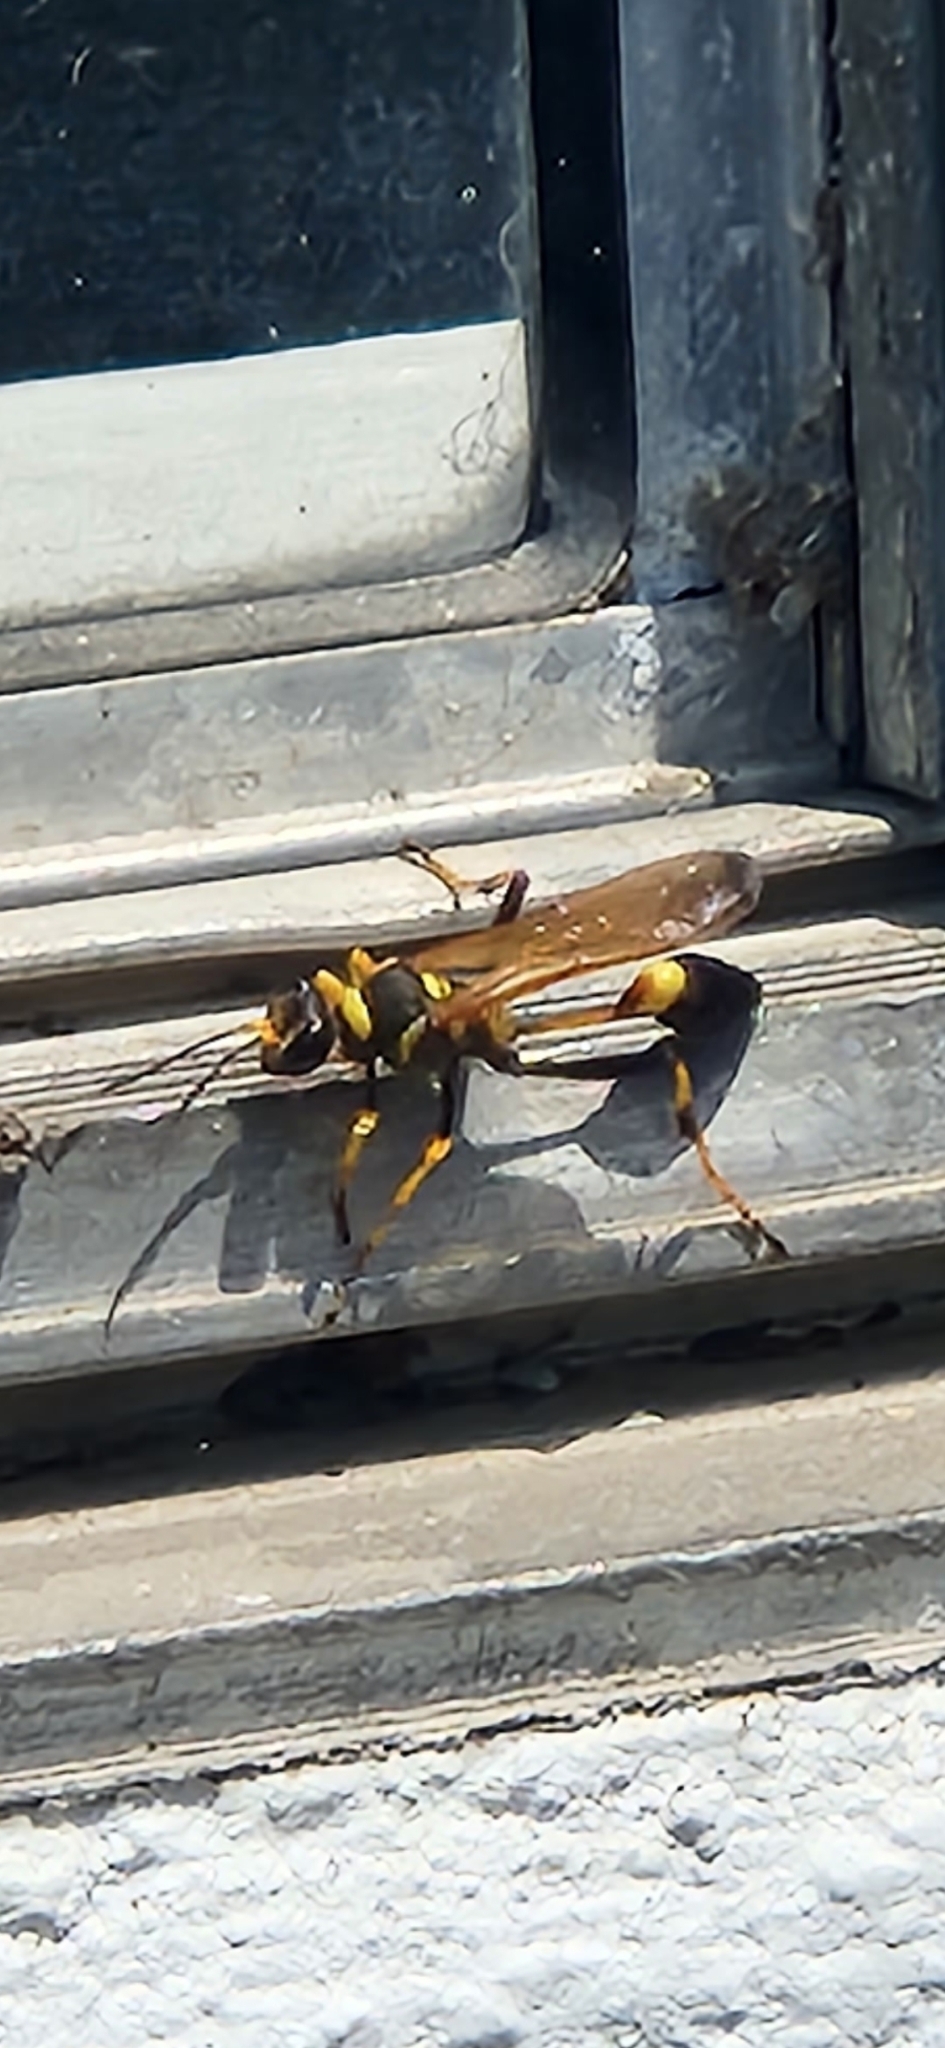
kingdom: Animalia
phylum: Arthropoda
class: Insecta
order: Hymenoptera
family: Sphecidae
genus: Sceliphron
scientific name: Sceliphron caementarium
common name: Mud dauber
